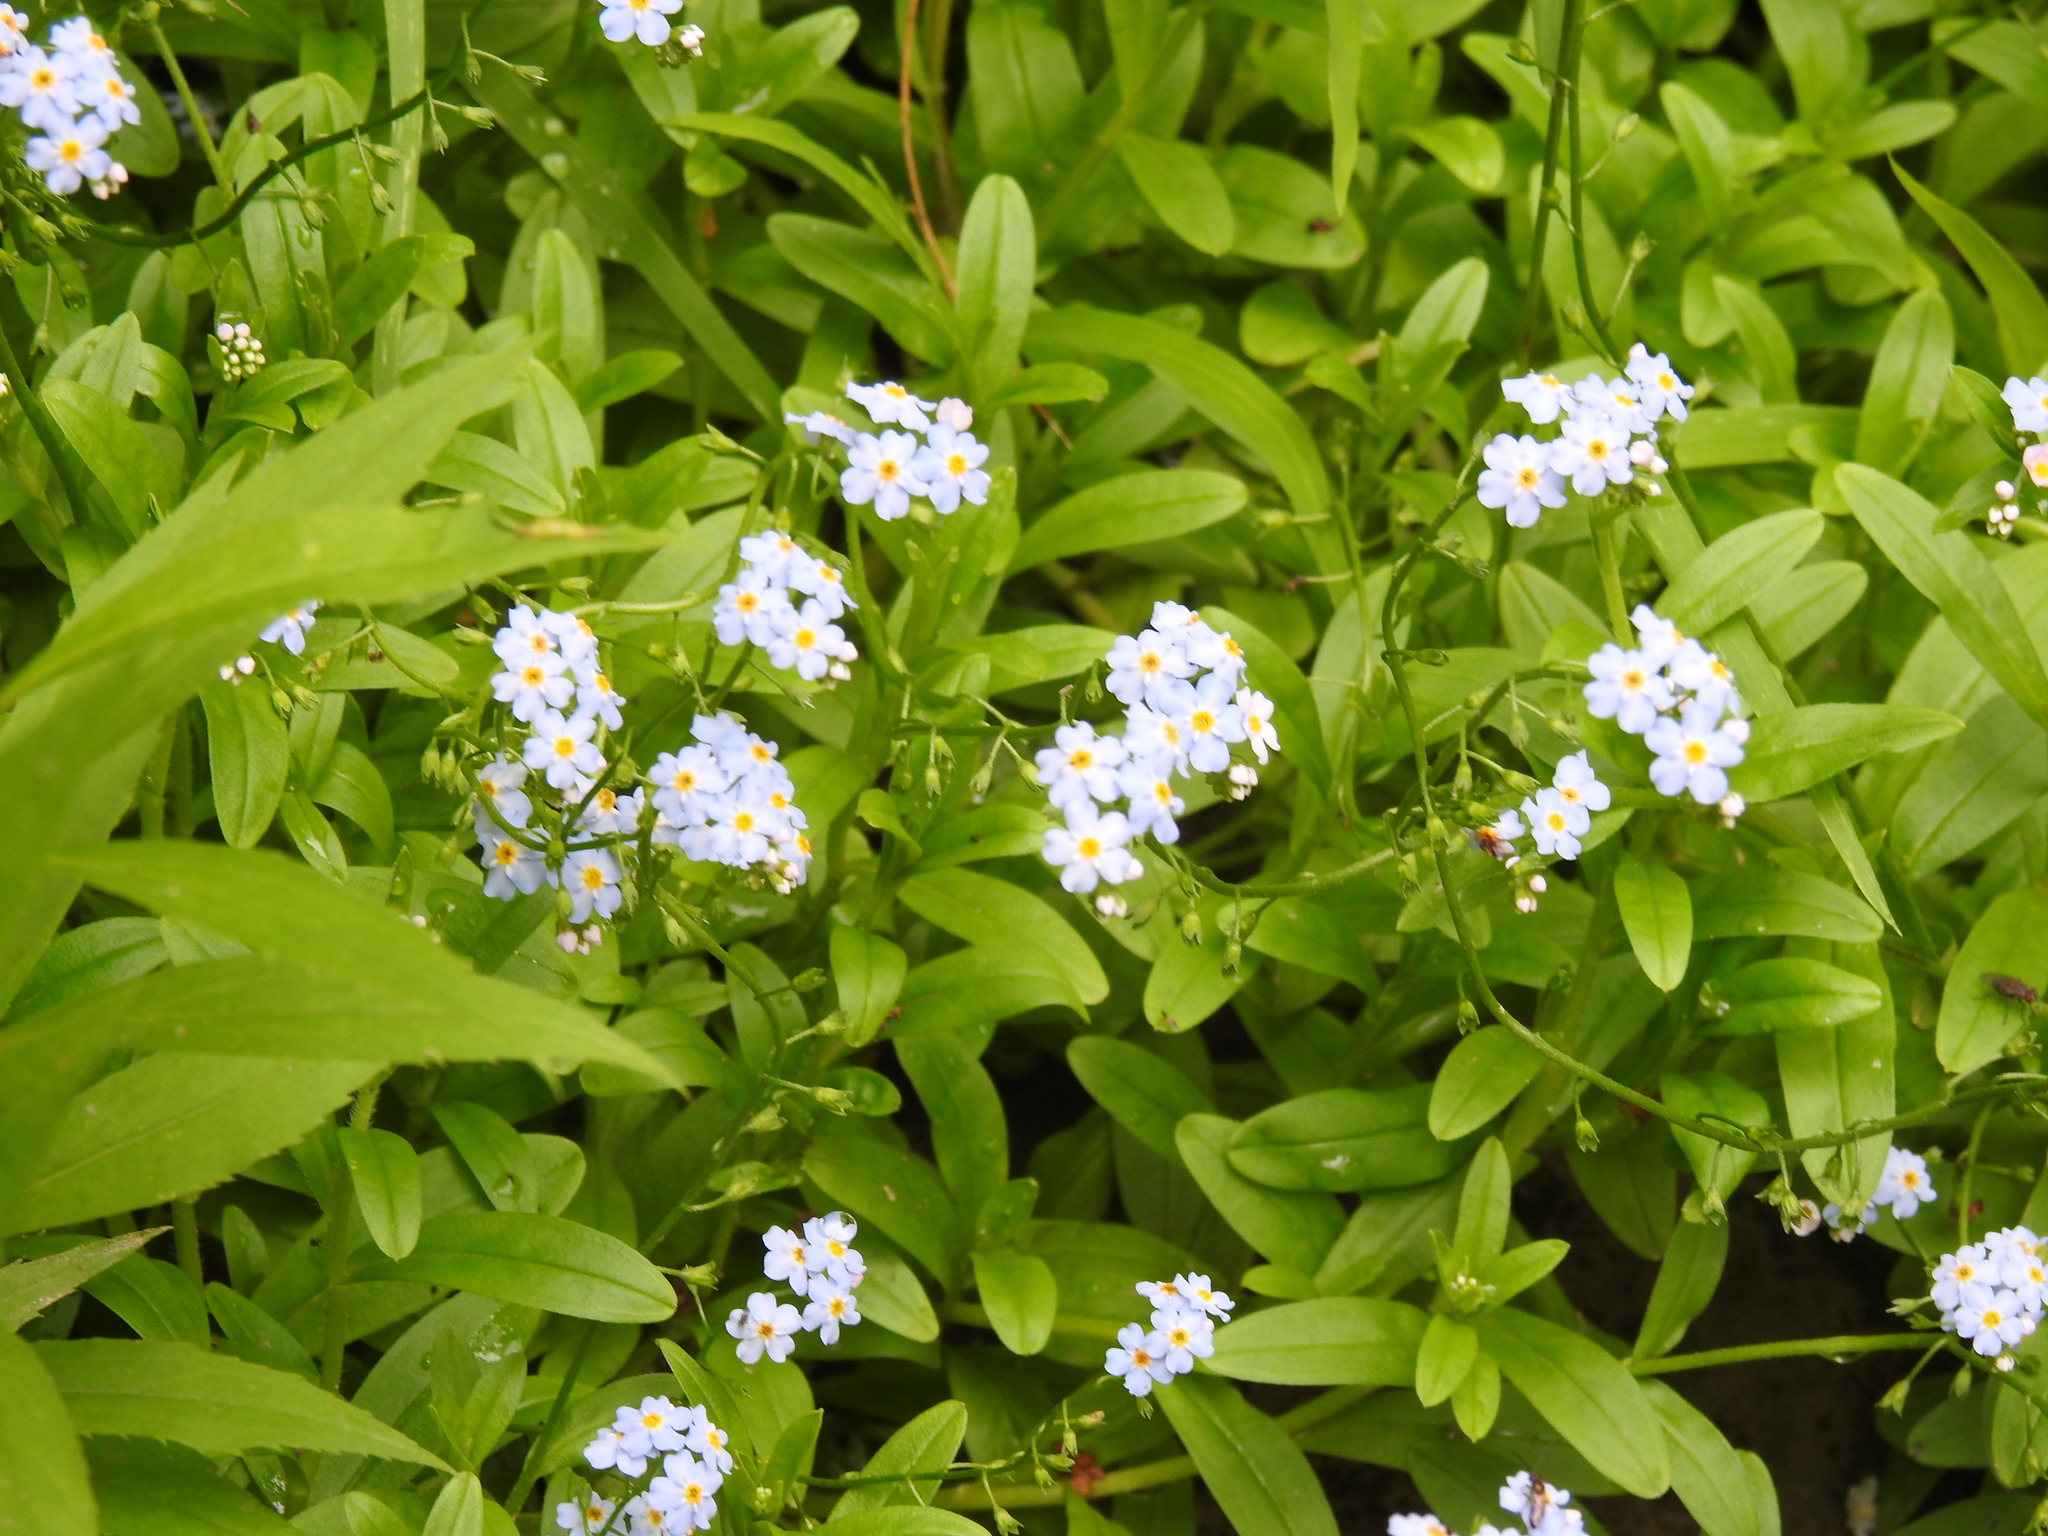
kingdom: Plantae
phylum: Tracheophyta
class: Magnoliopsida
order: Boraginales
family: Boraginaceae
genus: Myosotis
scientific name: Myosotis scorpioides
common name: Water forget-me-not
